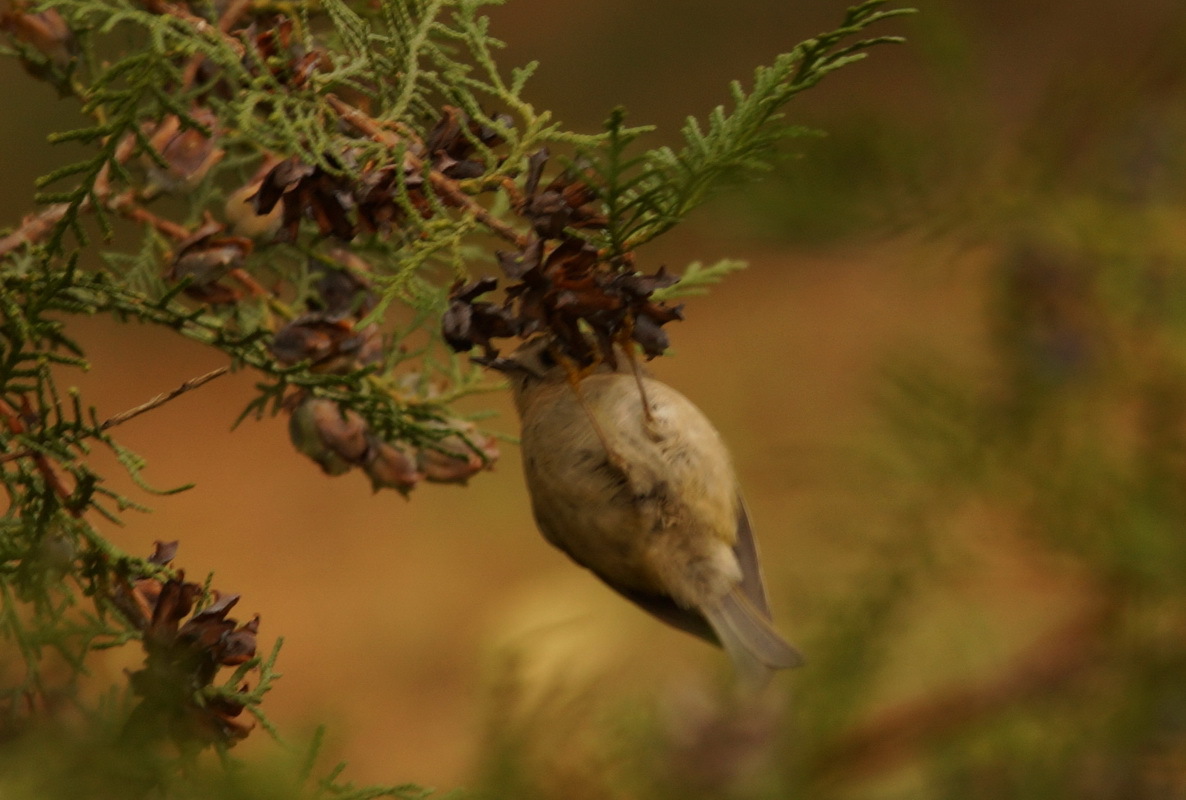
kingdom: Animalia
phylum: Chordata
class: Aves
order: Passeriformes
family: Regulidae
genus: Regulus
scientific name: Regulus regulus
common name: Goldcrest
